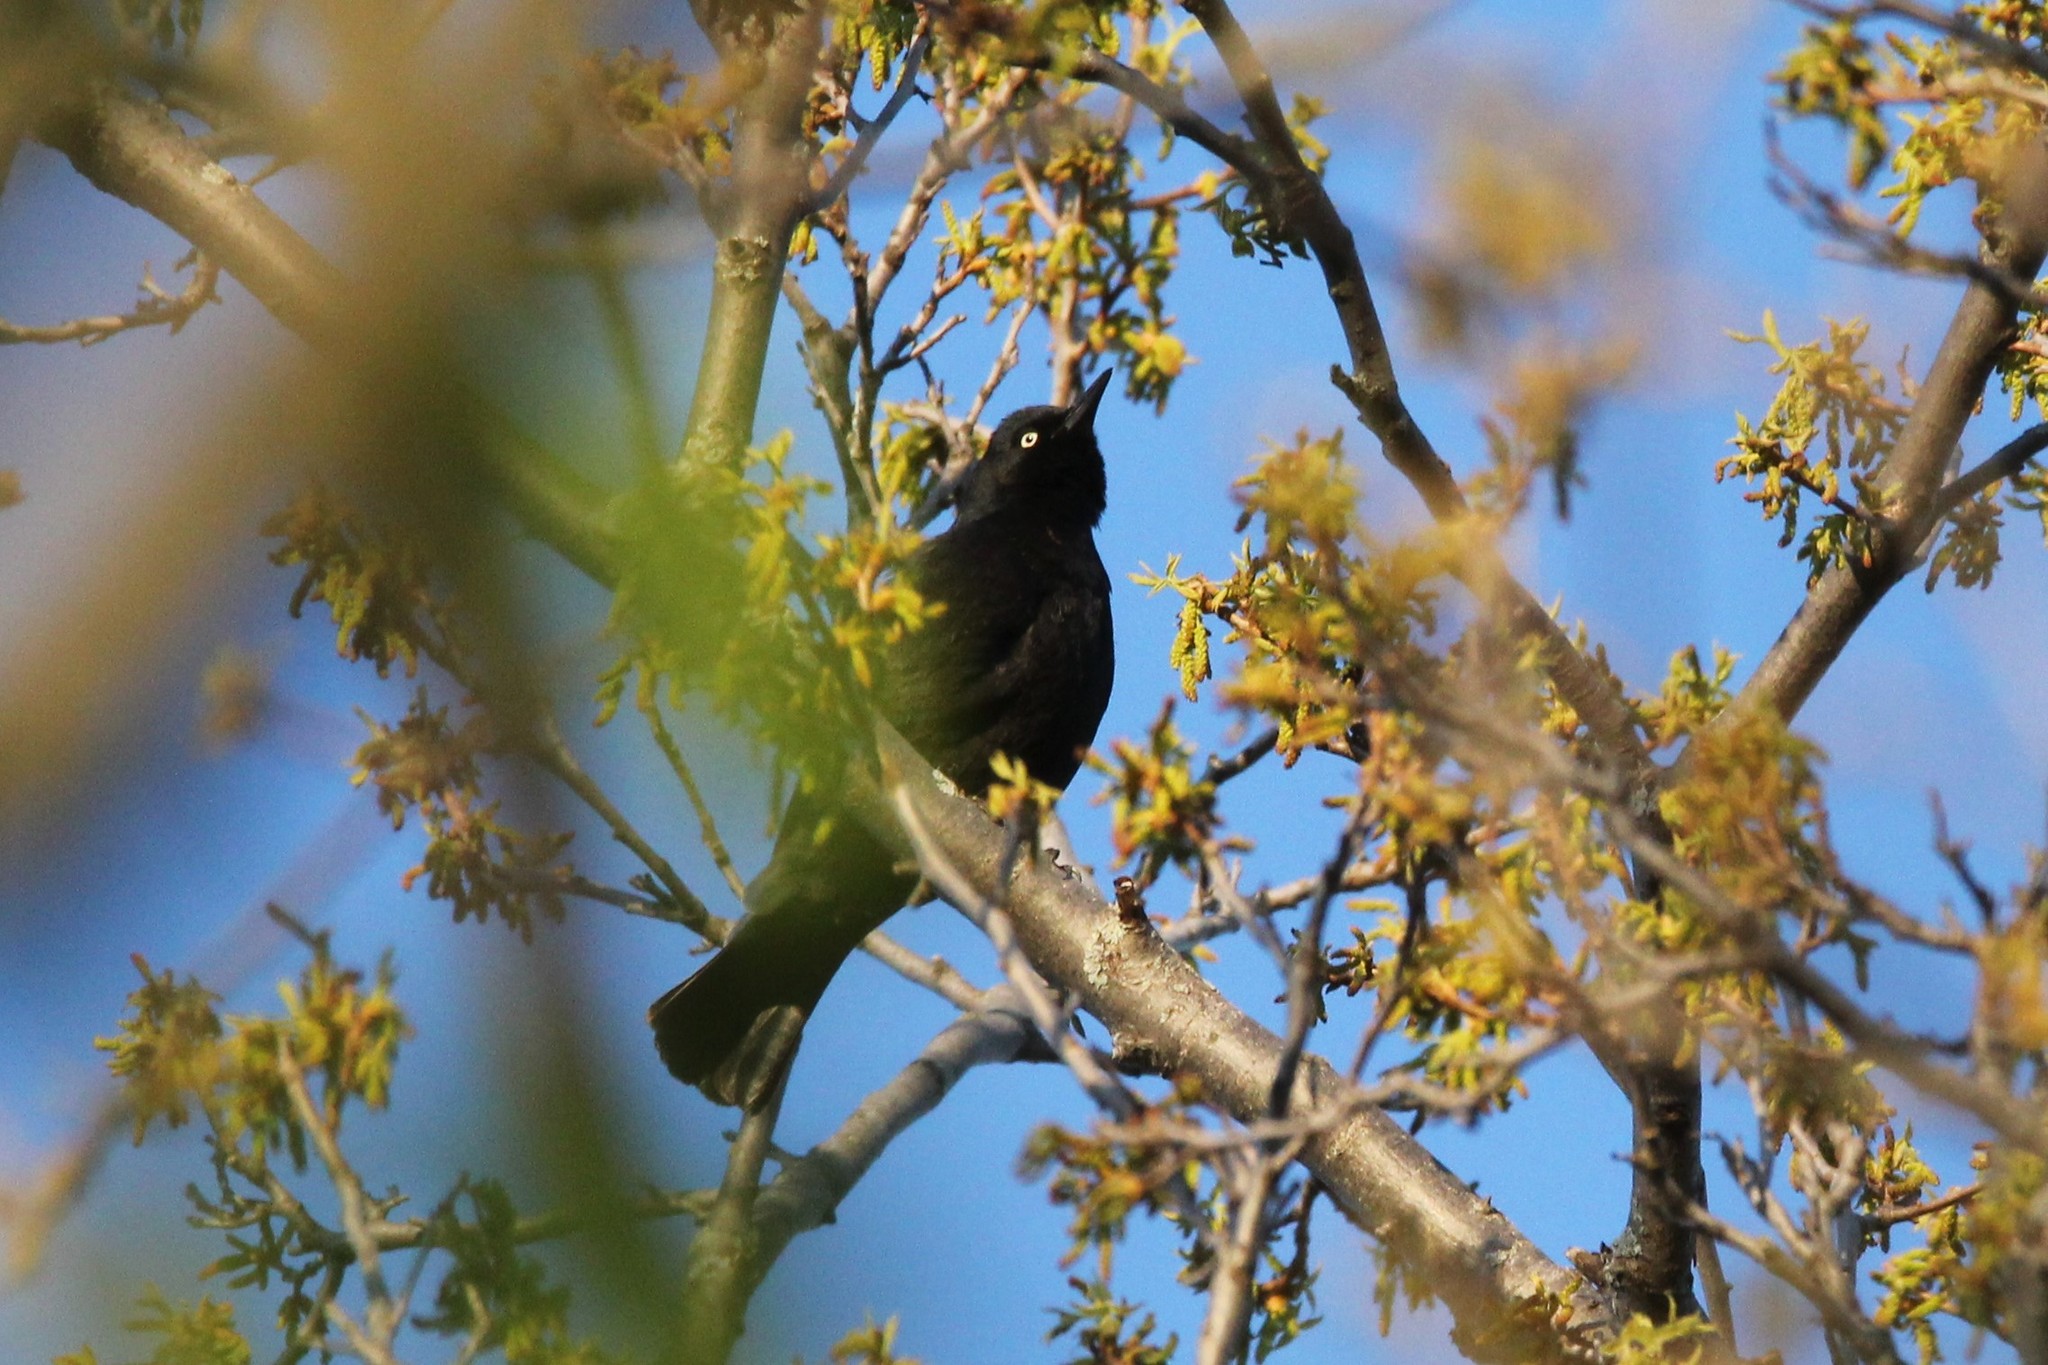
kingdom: Animalia
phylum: Chordata
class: Aves
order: Passeriformes
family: Icteridae
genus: Euphagus
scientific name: Euphagus carolinus
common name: Rusty blackbird
